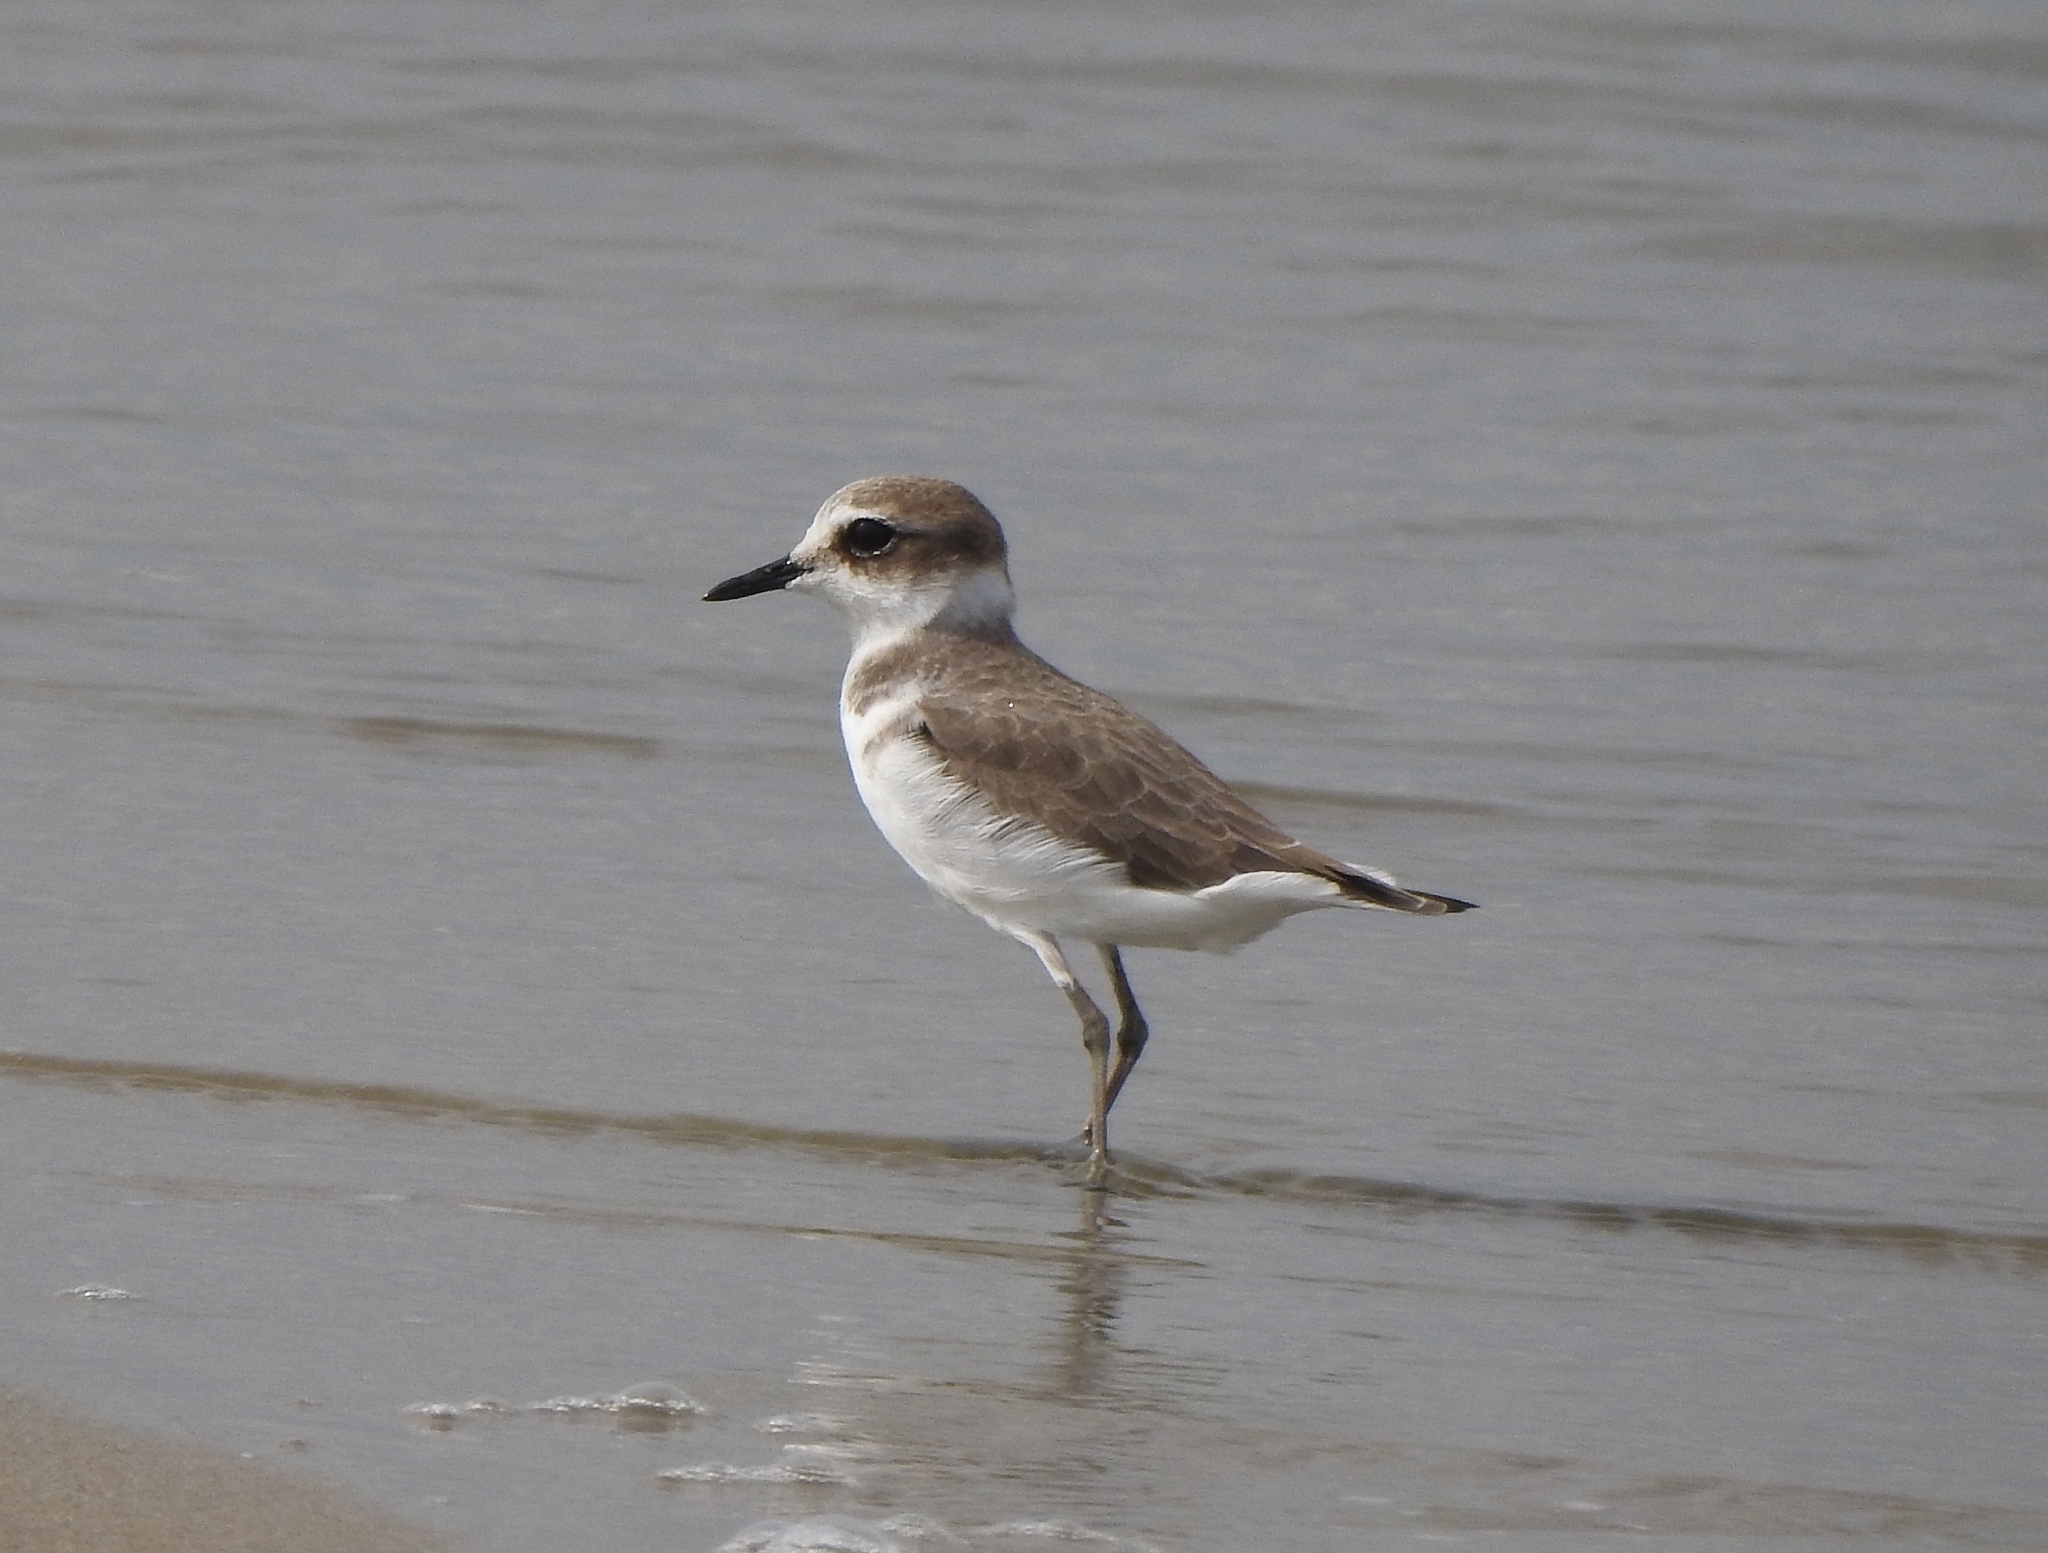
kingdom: Animalia
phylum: Chordata
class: Aves
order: Charadriiformes
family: Charadriidae
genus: Charadrius
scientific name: Charadrius alexandrinus
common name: Kentish plover
